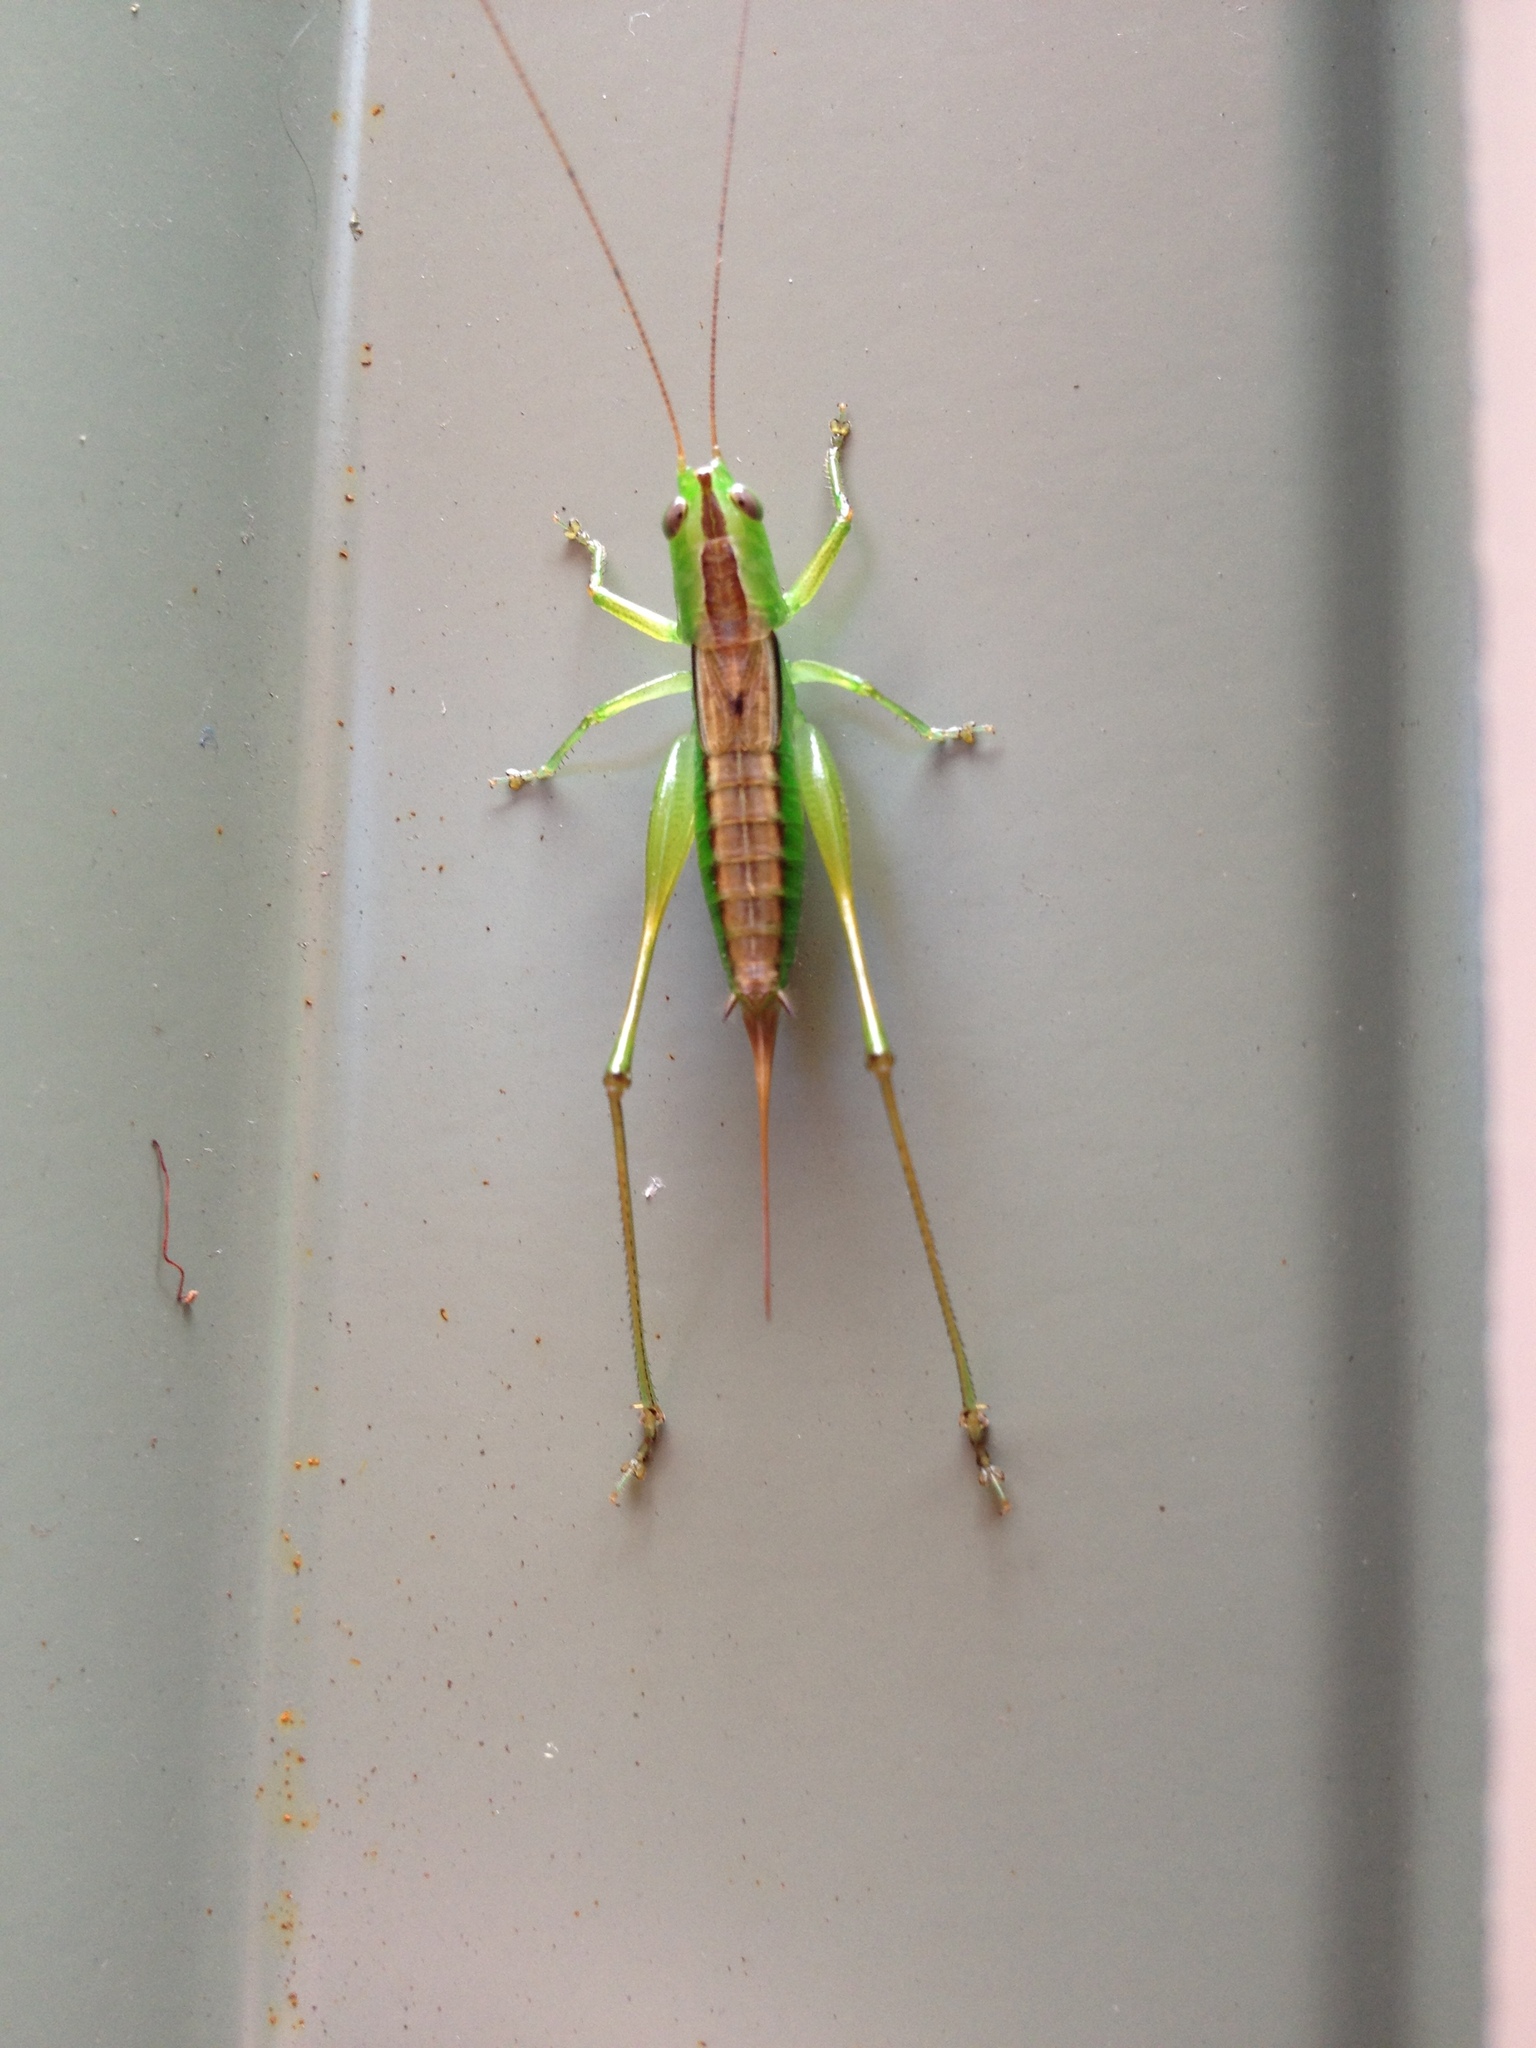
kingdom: Animalia
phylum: Arthropoda
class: Insecta
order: Orthoptera
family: Tettigoniidae
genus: Conocephalus
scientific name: Conocephalus semivittatus
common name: Blackish meadow katydid
